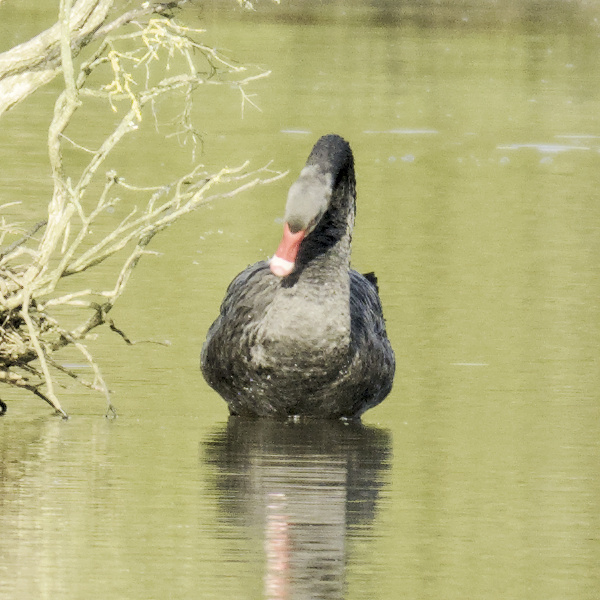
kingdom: Animalia
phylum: Chordata
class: Aves
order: Anseriformes
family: Anatidae
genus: Cygnus
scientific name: Cygnus atratus
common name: Black swan
